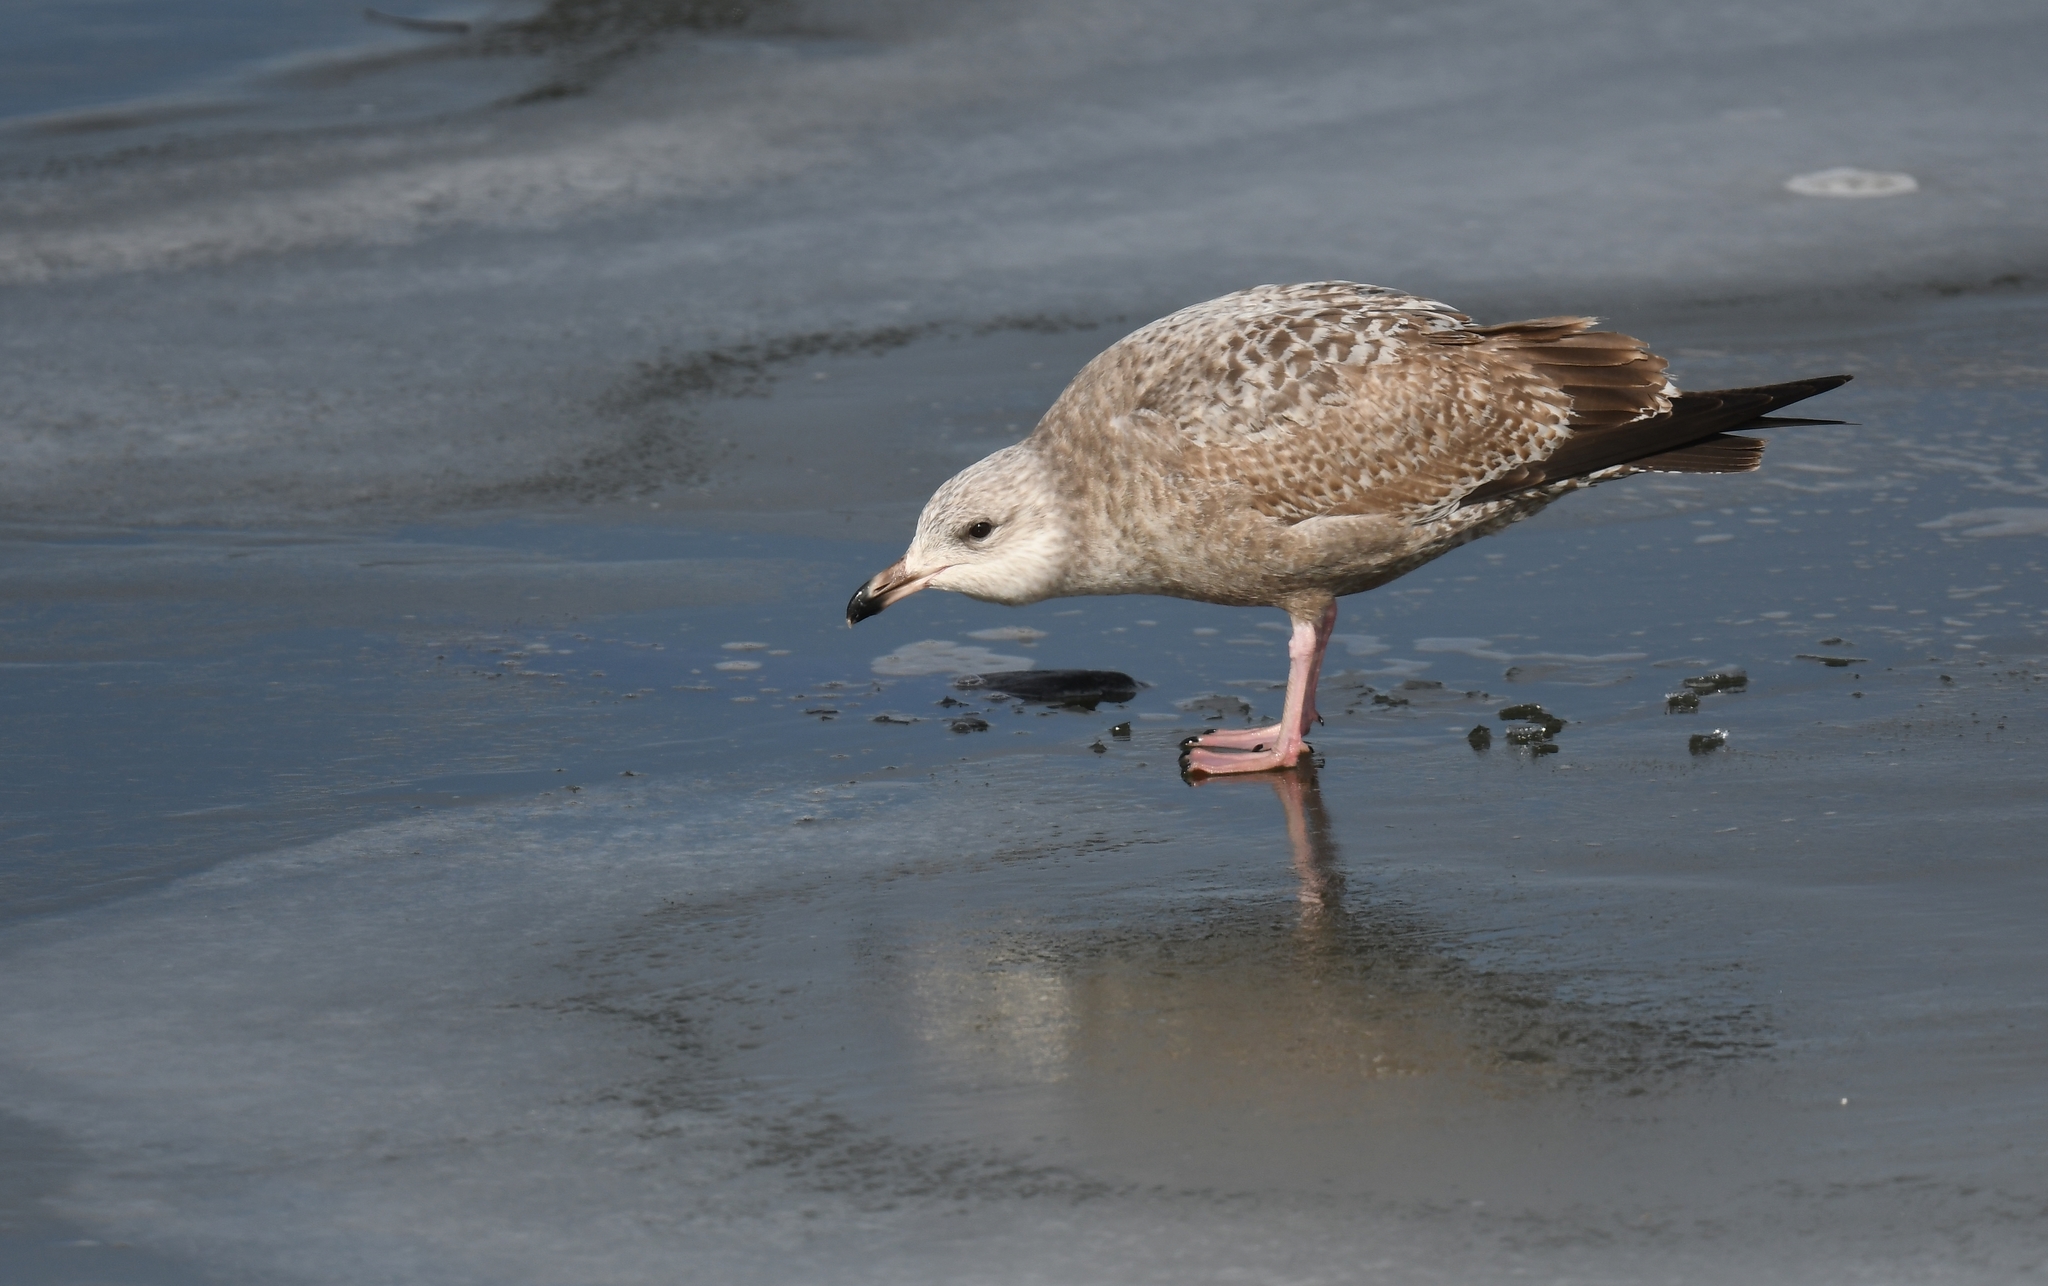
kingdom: Animalia
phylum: Chordata
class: Aves
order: Charadriiformes
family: Laridae
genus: Larus
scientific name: Larus argentatus
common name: Herring gull
